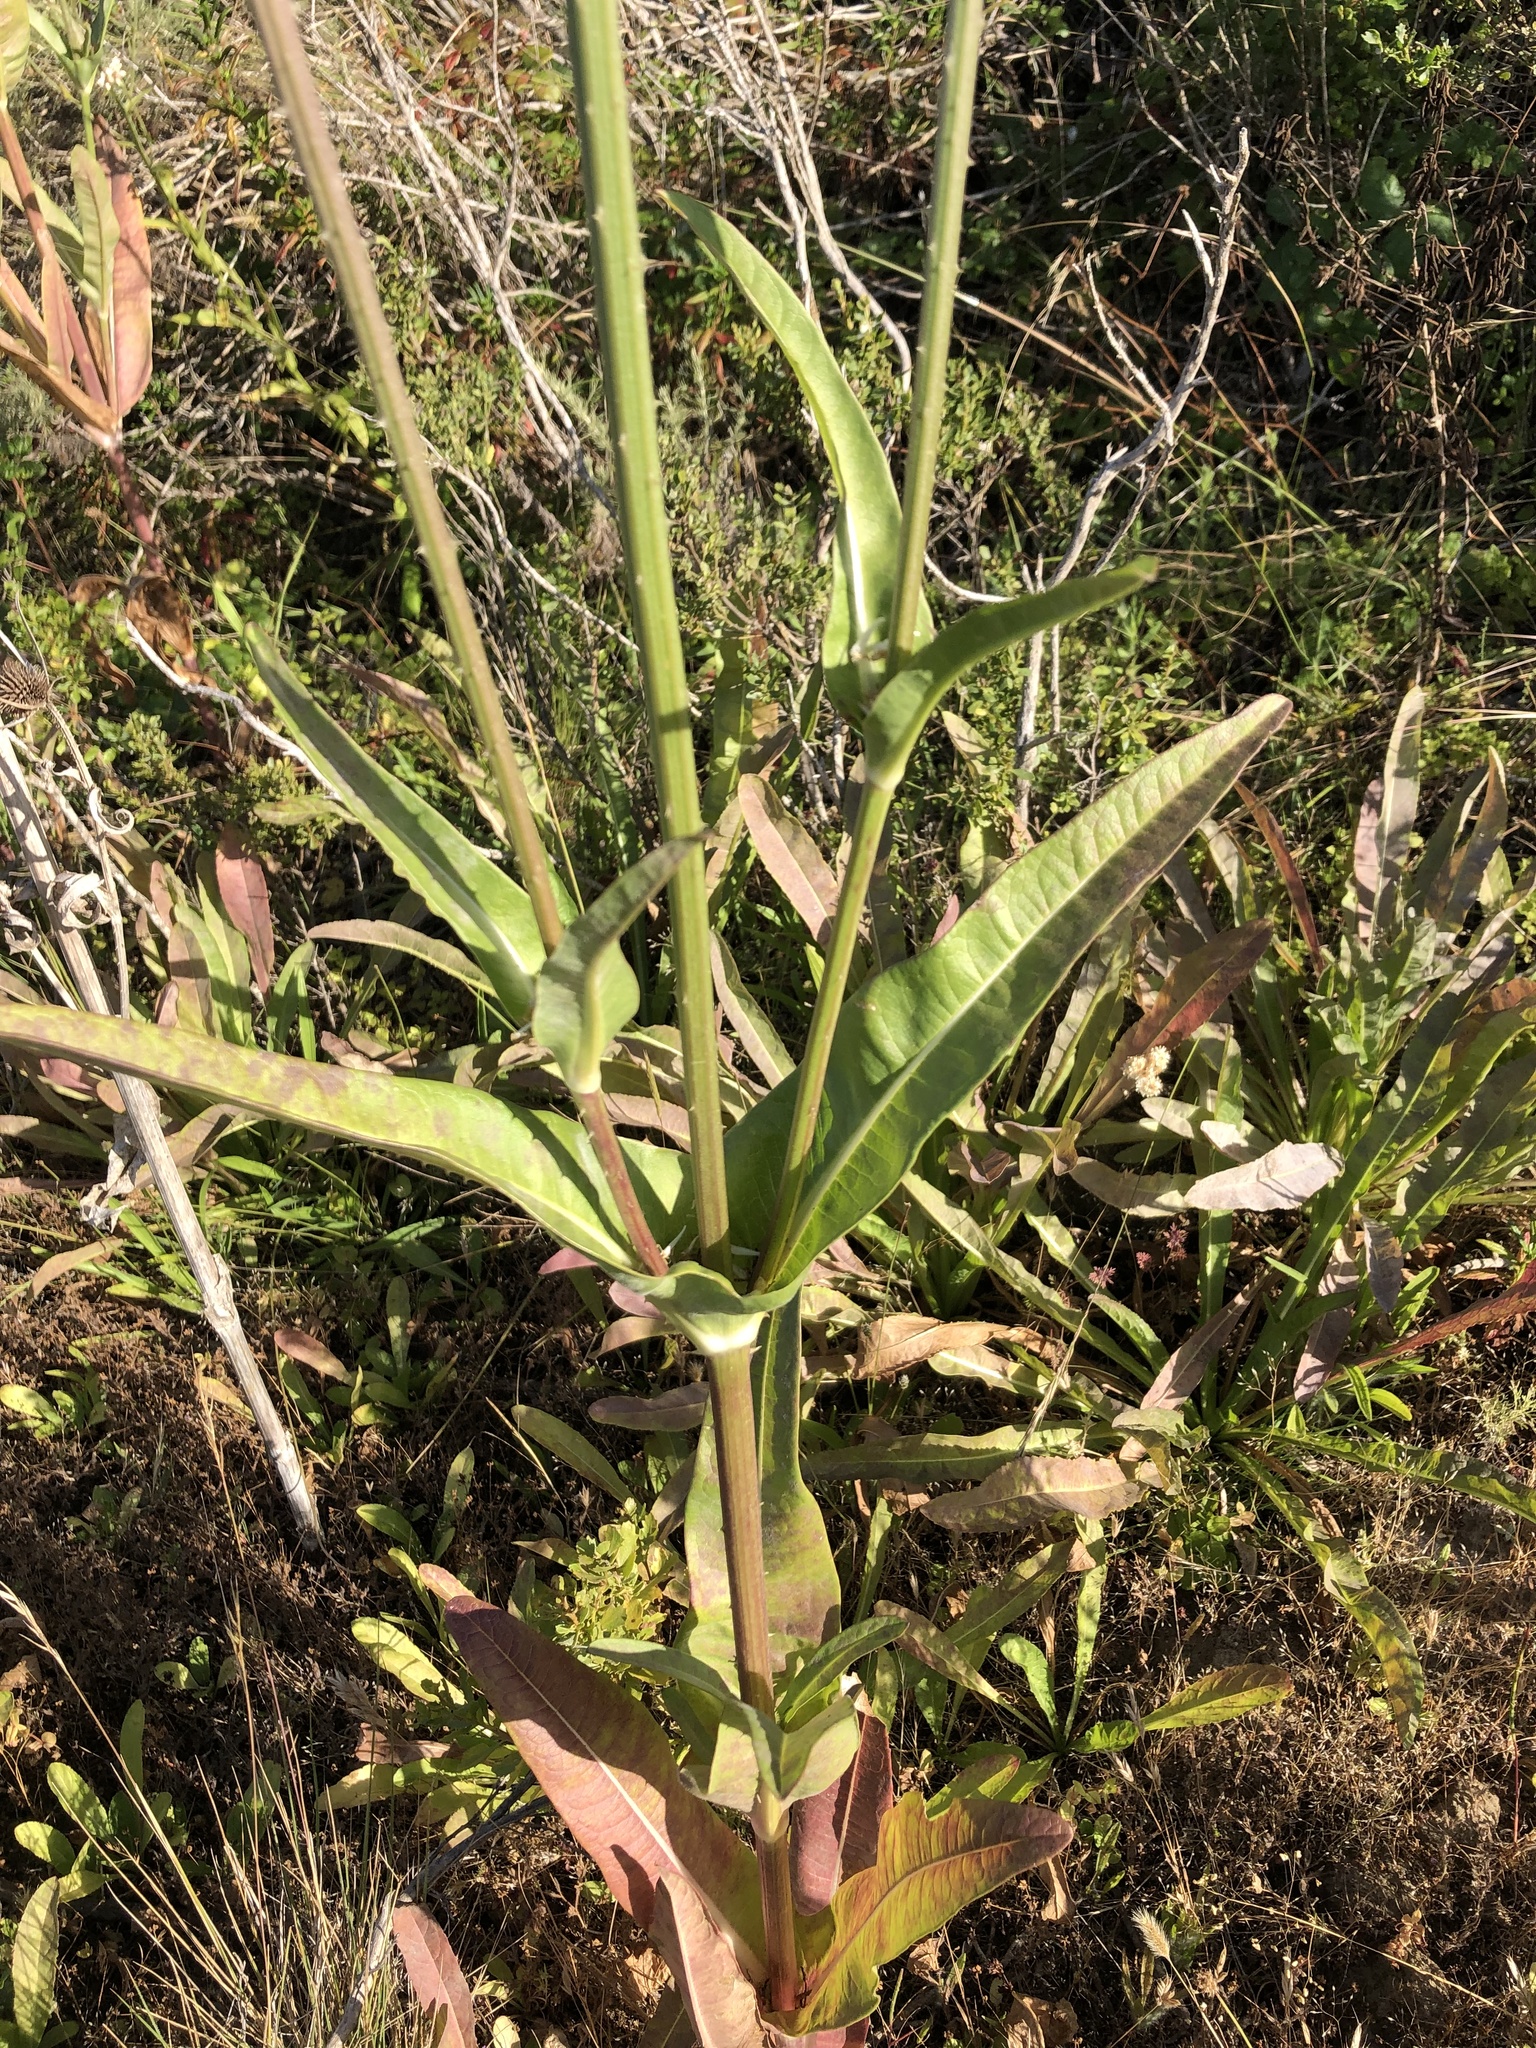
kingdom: Plantae
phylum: Tracheophyta
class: Magnoliopsida
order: Dipsacales
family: Caprifoliaceae
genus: Dipsacus
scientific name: Dipsacus sativus
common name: Fuller's teasel
